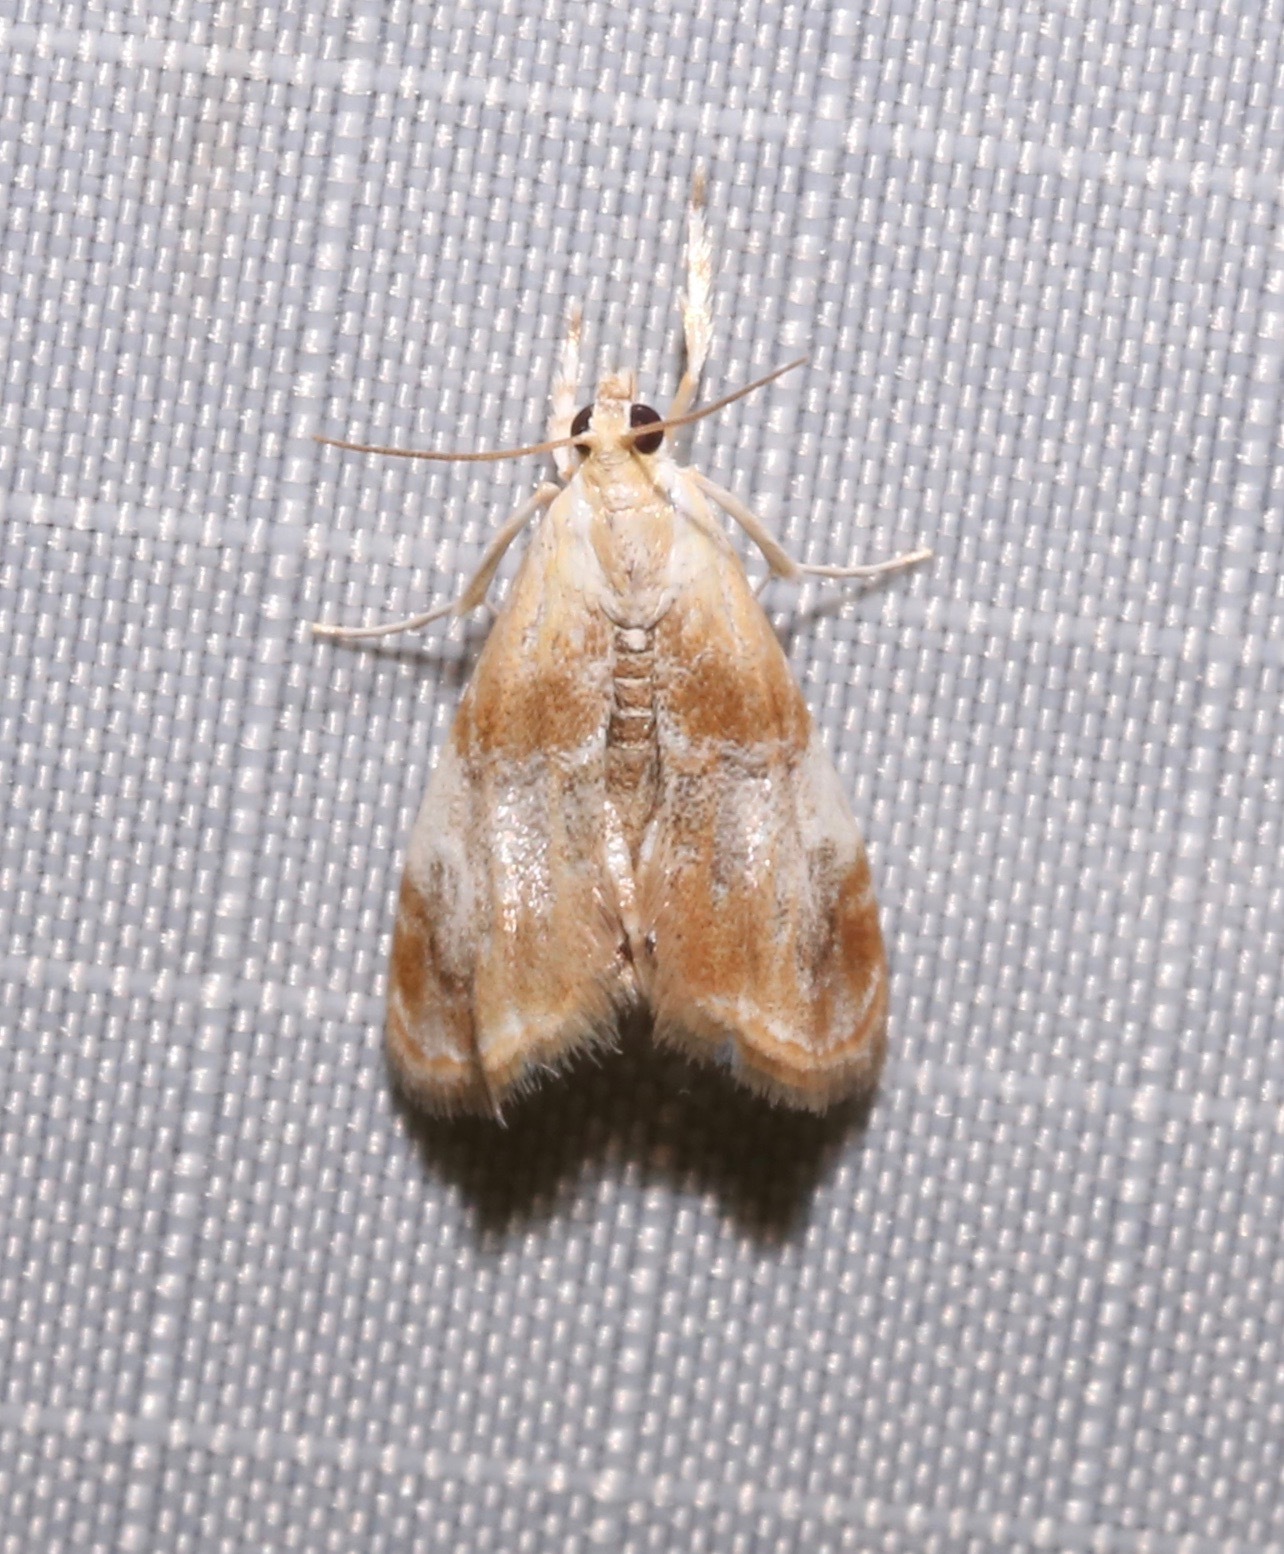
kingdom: Animalia
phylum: Arthropoda
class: Insecta
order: Lepidoptera
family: Crambidae
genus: Dicymolomia
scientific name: Dicymolomia julianalis
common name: Julia's dicymolomia moth
